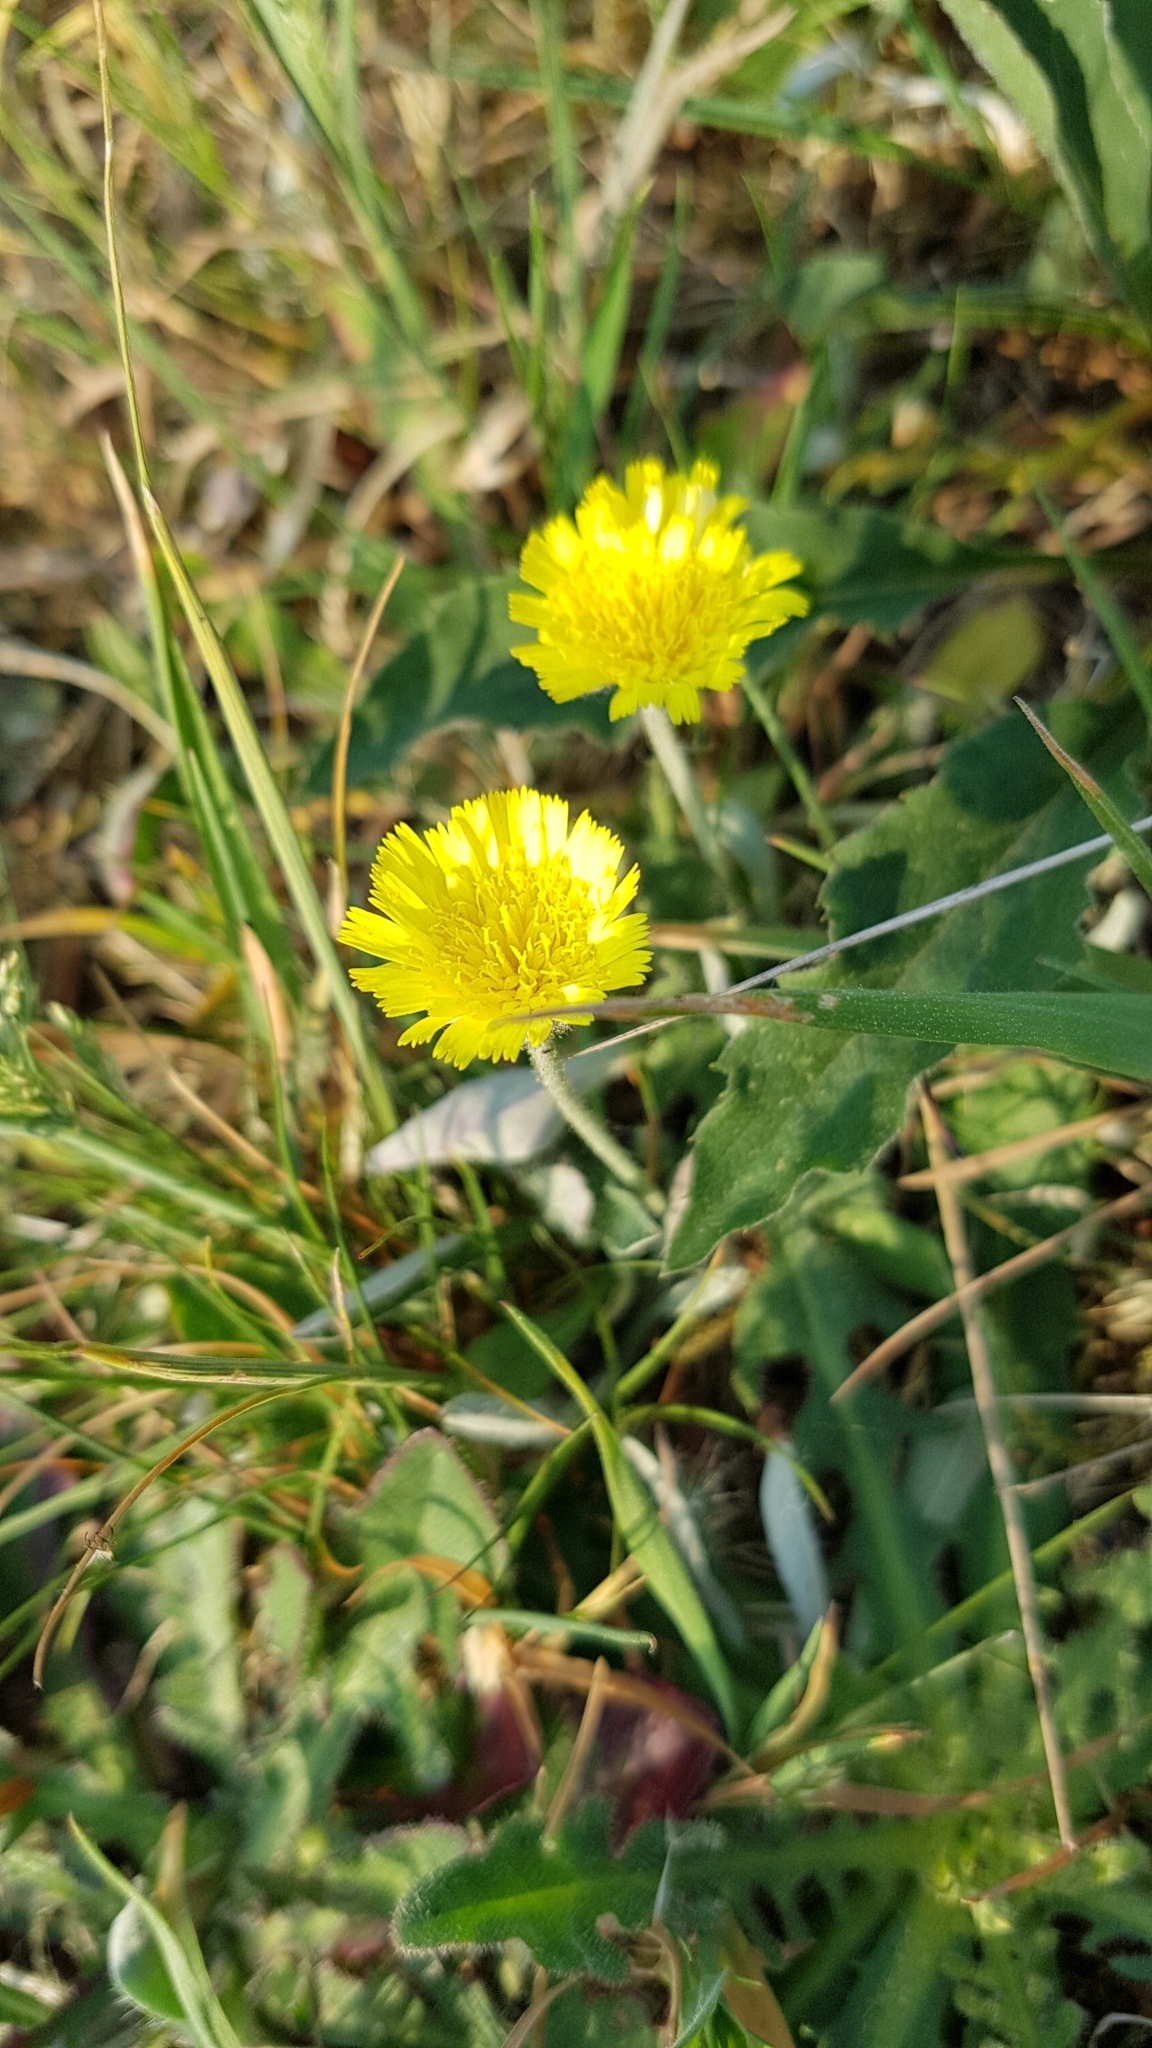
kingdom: Plantae
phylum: Tracheophyta
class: Magnoliopsida
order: Asterales
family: Asteraceae
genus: Pilosella
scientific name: Pilosella officinarum
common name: Mouse-ear hawkweed
